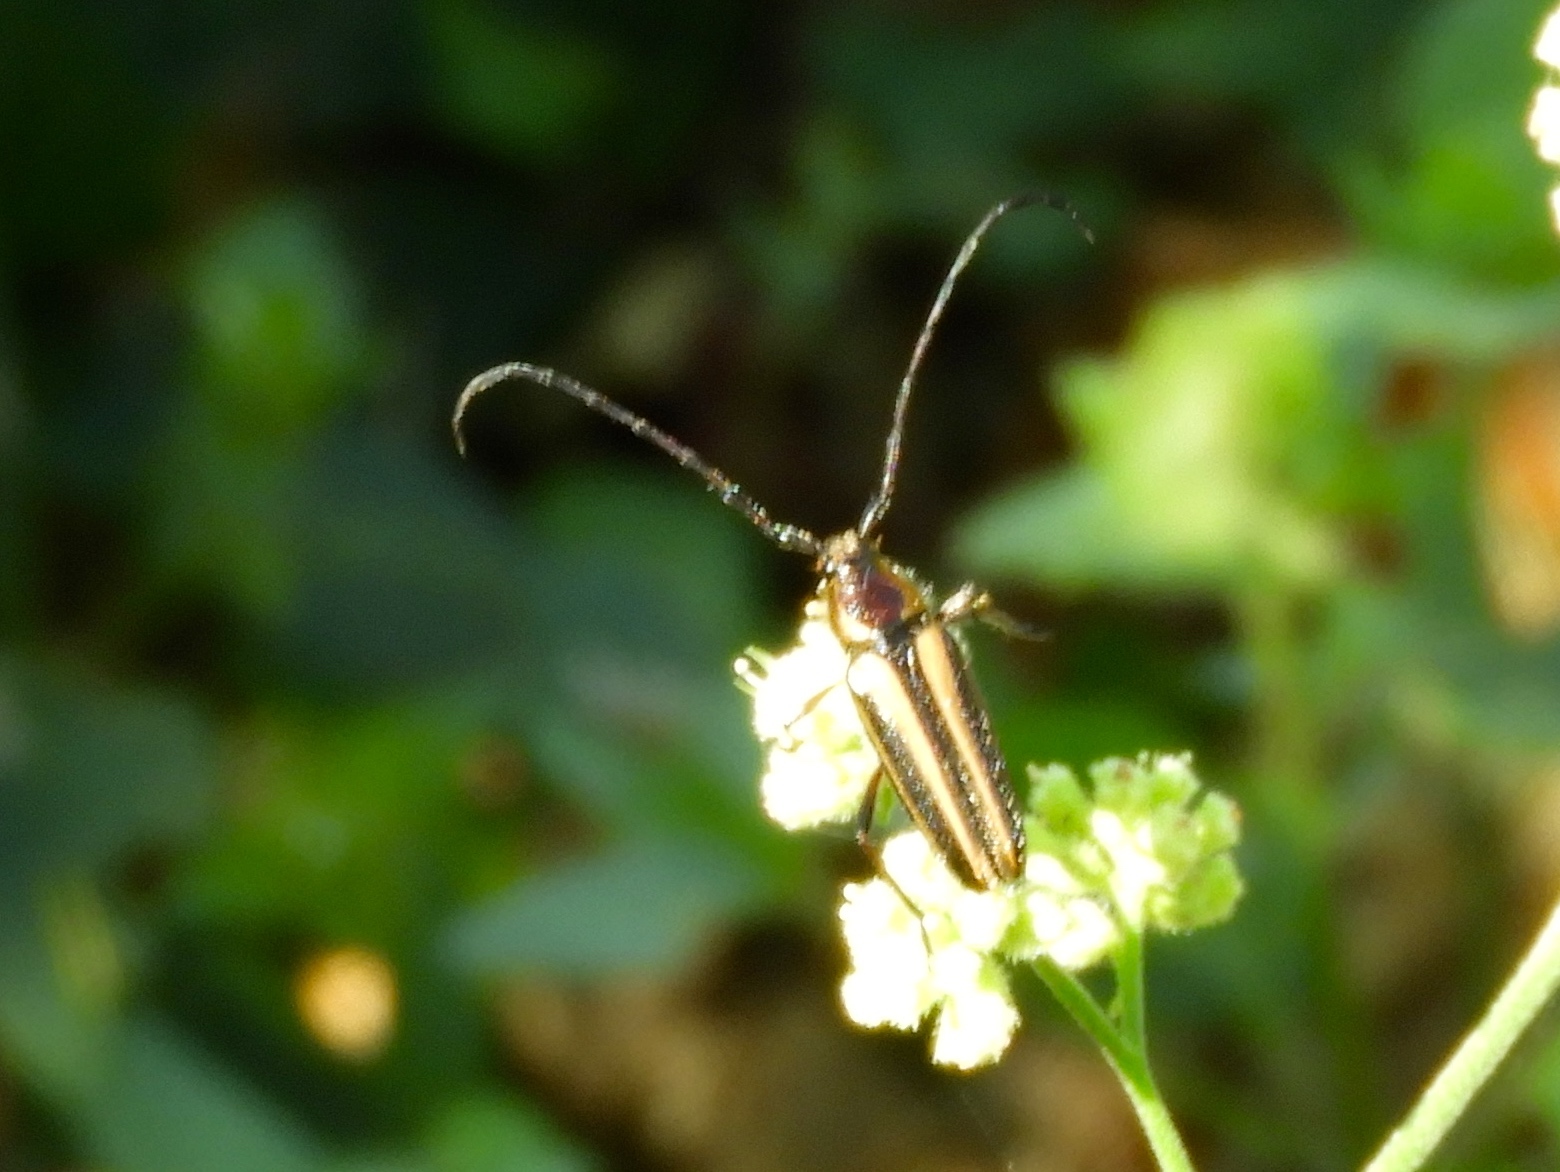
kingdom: Animalia
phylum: Arthropoda
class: Insecta
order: Coleoptera
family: Cerambycidae
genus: Sphaenothecus
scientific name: Sphaenothecus maccartyi
